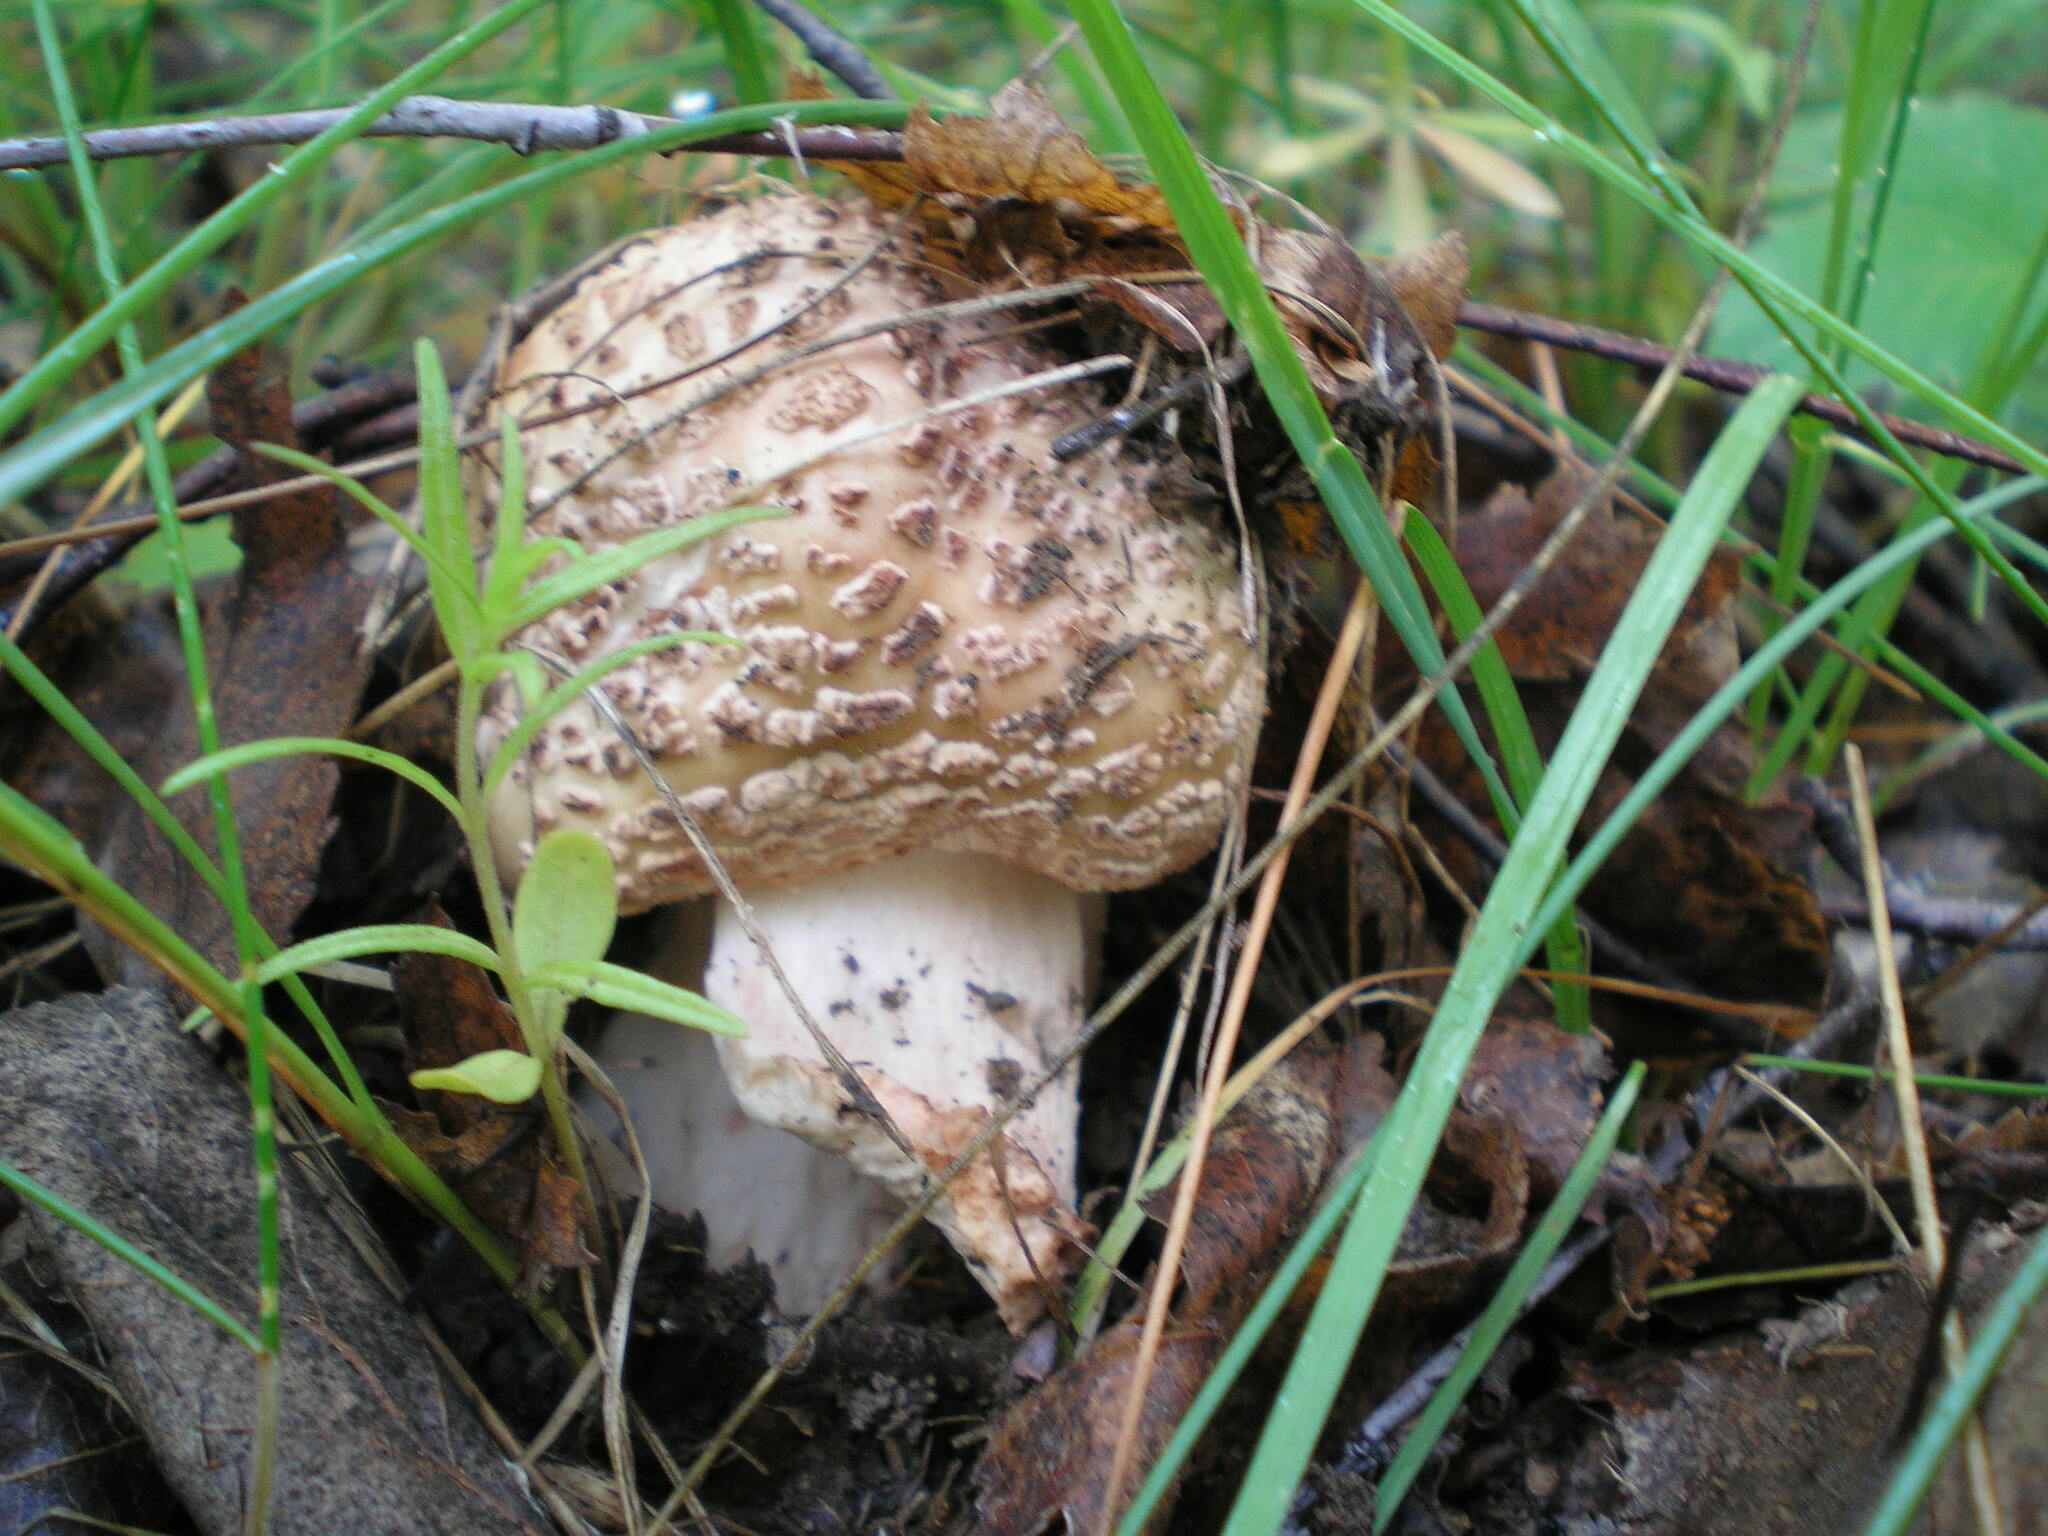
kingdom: Fungi
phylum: Basidiomycota
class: Agaricomycetes
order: Agaricales
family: Amanitaceae
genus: Amanita
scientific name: Amanita rubescens
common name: Blusher
